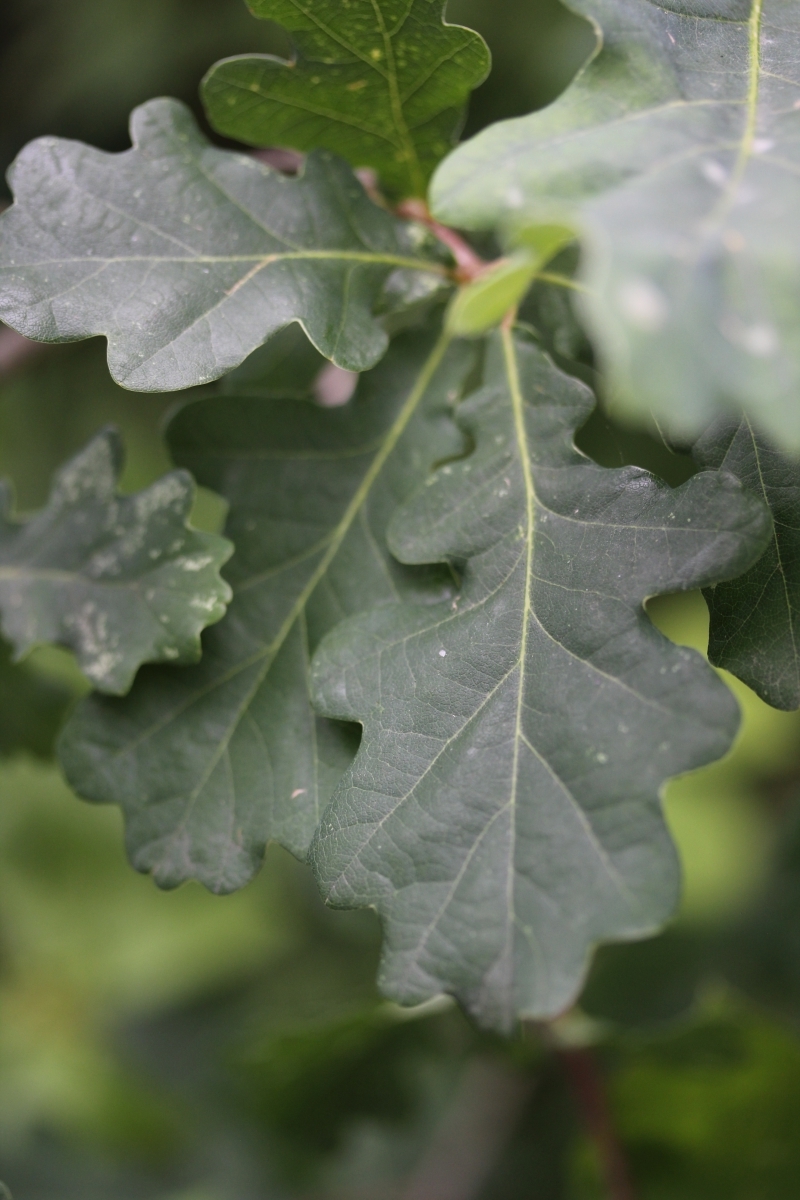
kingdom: Plantae
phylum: Tracheophyta
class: Magnoliopsida
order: Fagales
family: Fagaceae
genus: Quercus
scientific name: Quercus robur
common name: Pedunculate oak
